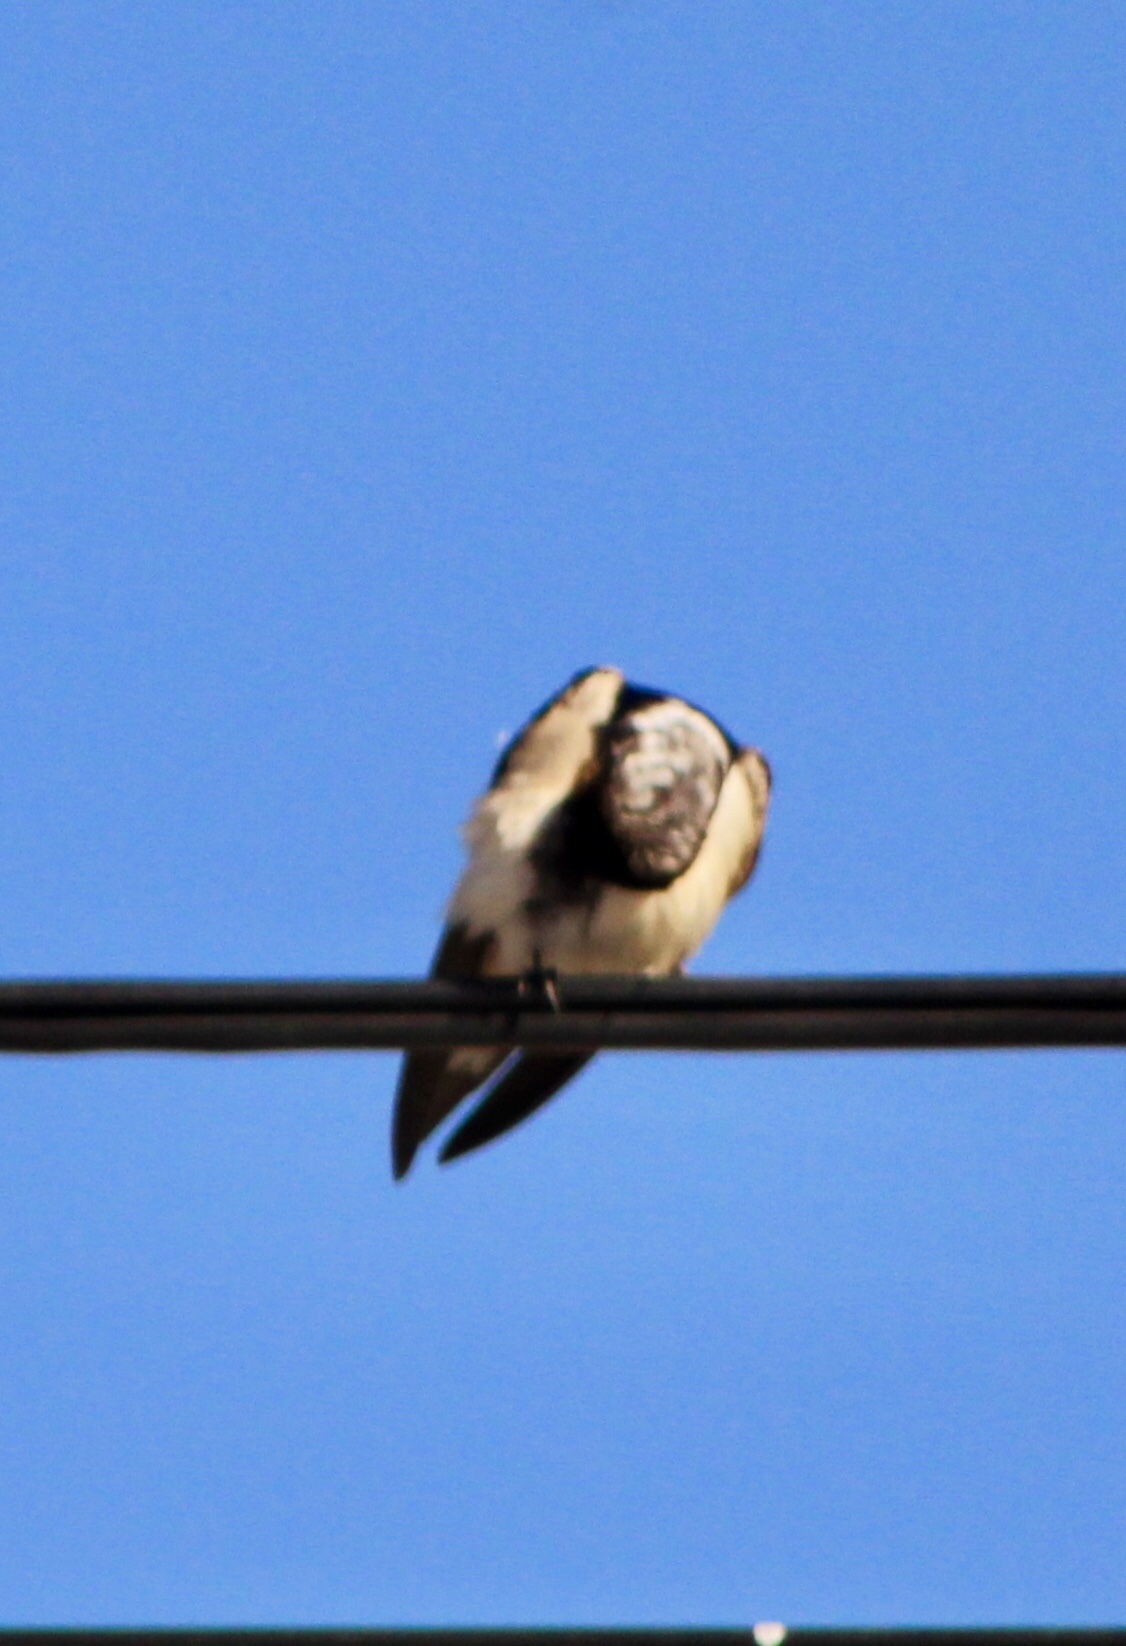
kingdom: Animalia
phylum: Chordata
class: Aves
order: Passeriformes
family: Hirundinidae
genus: Hirundo
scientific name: Hirundo rustica
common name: Barn swallow
